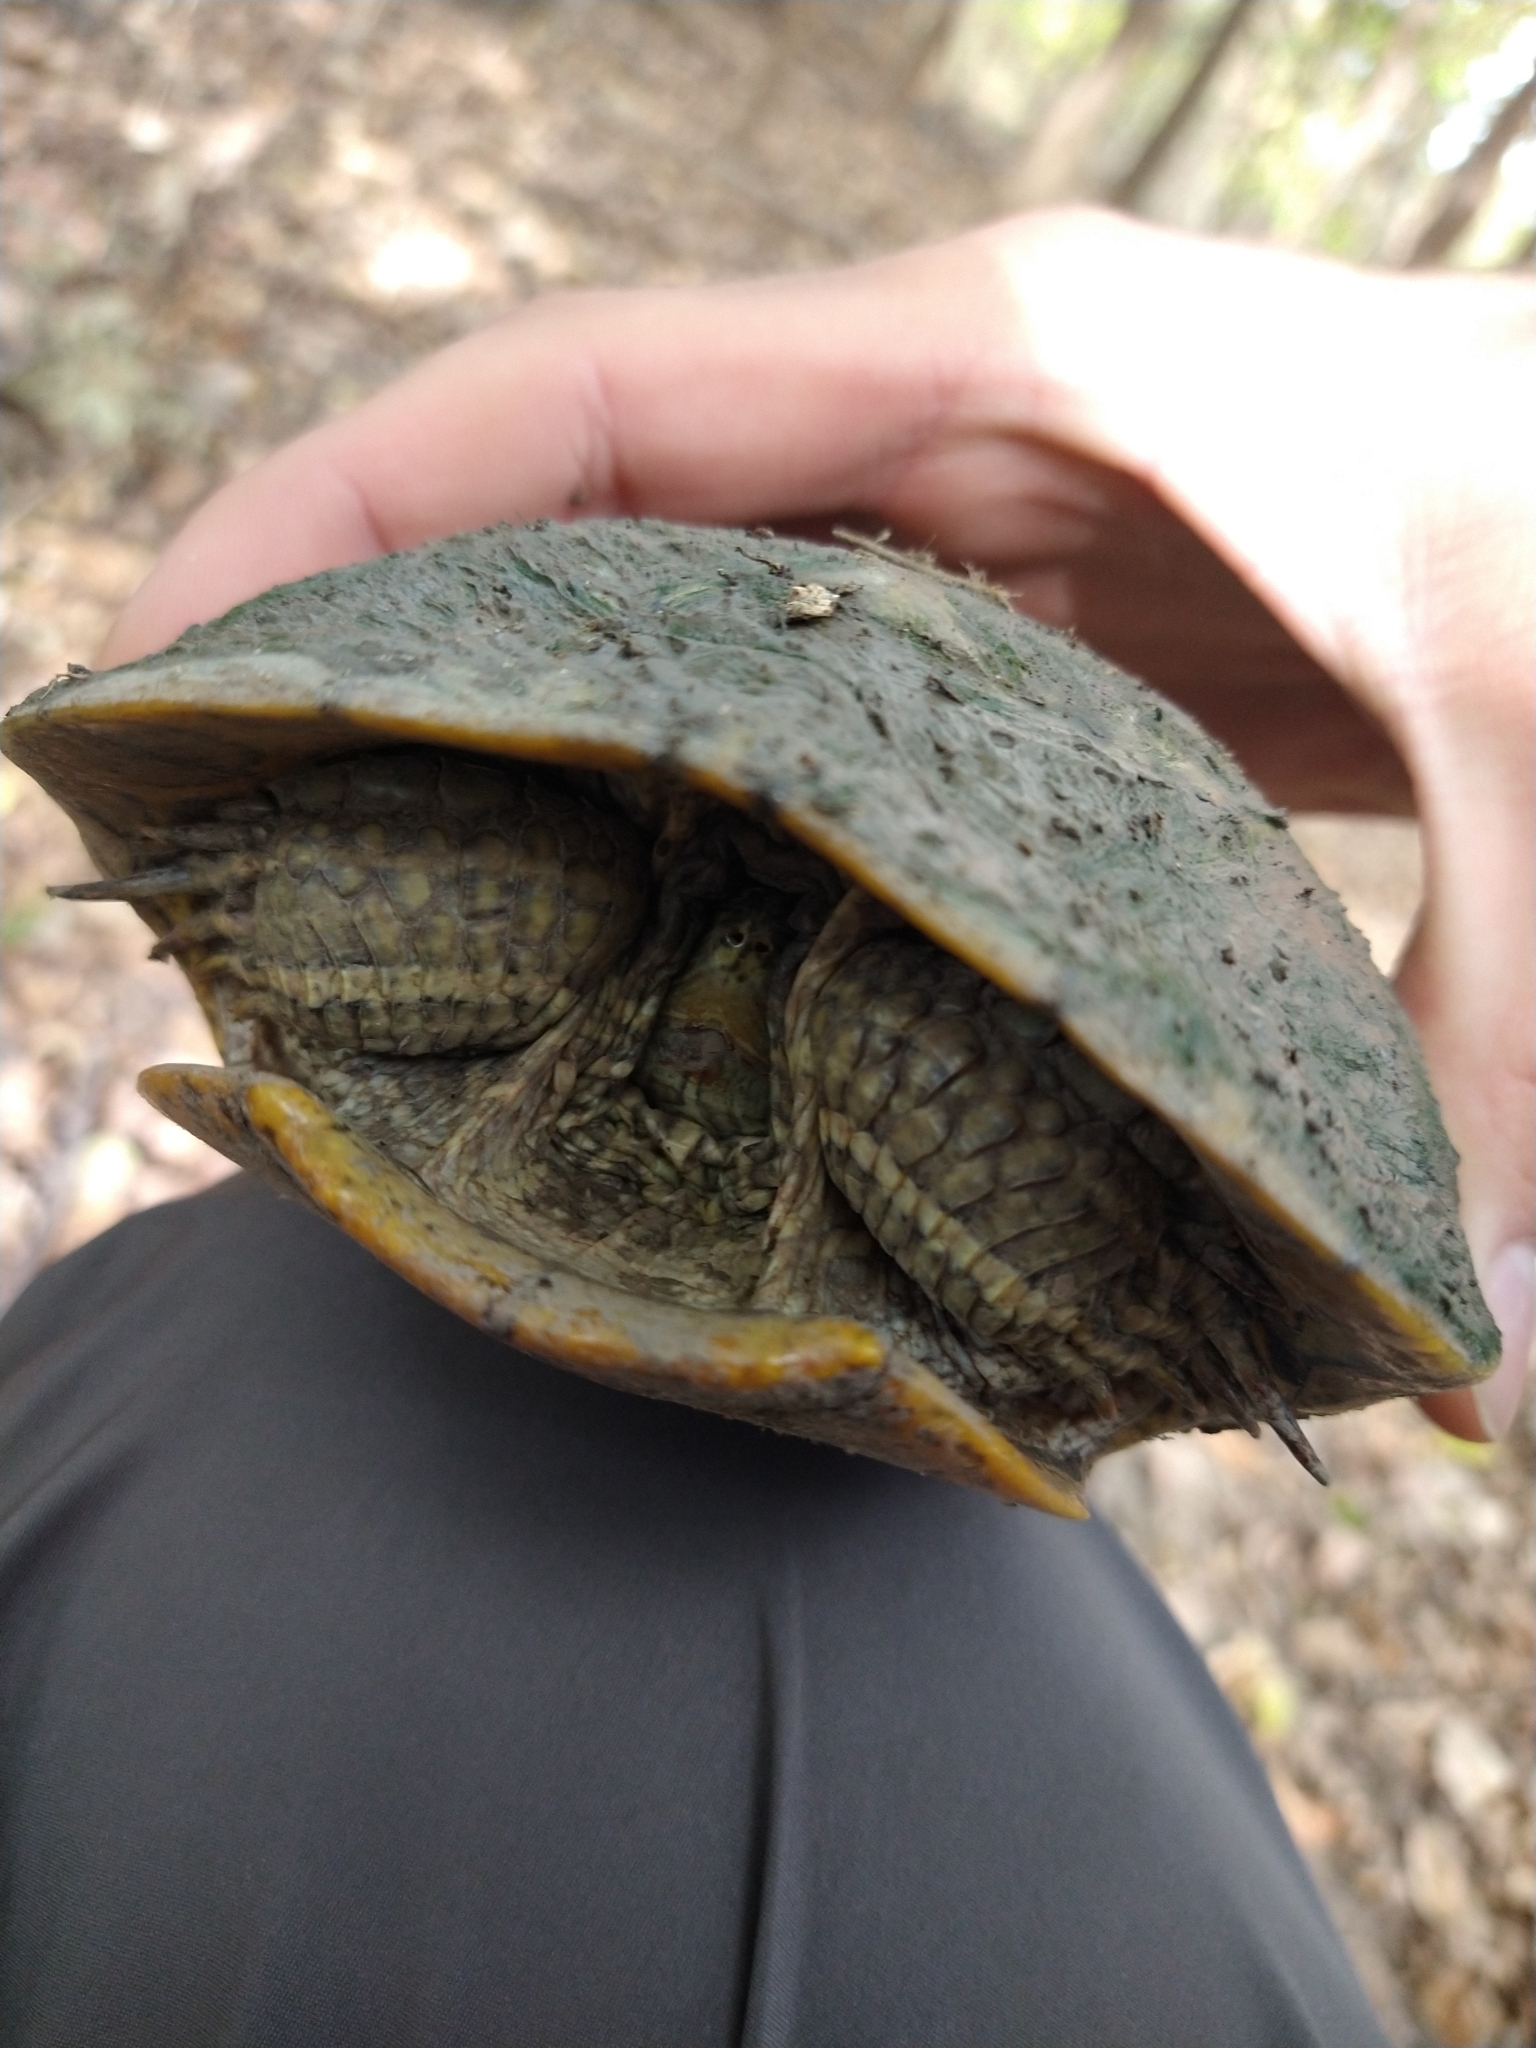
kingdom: Animalia
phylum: Chordata
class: Testudines
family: Emydidae
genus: Trachemys
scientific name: Trachemys scripta
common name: Slider
